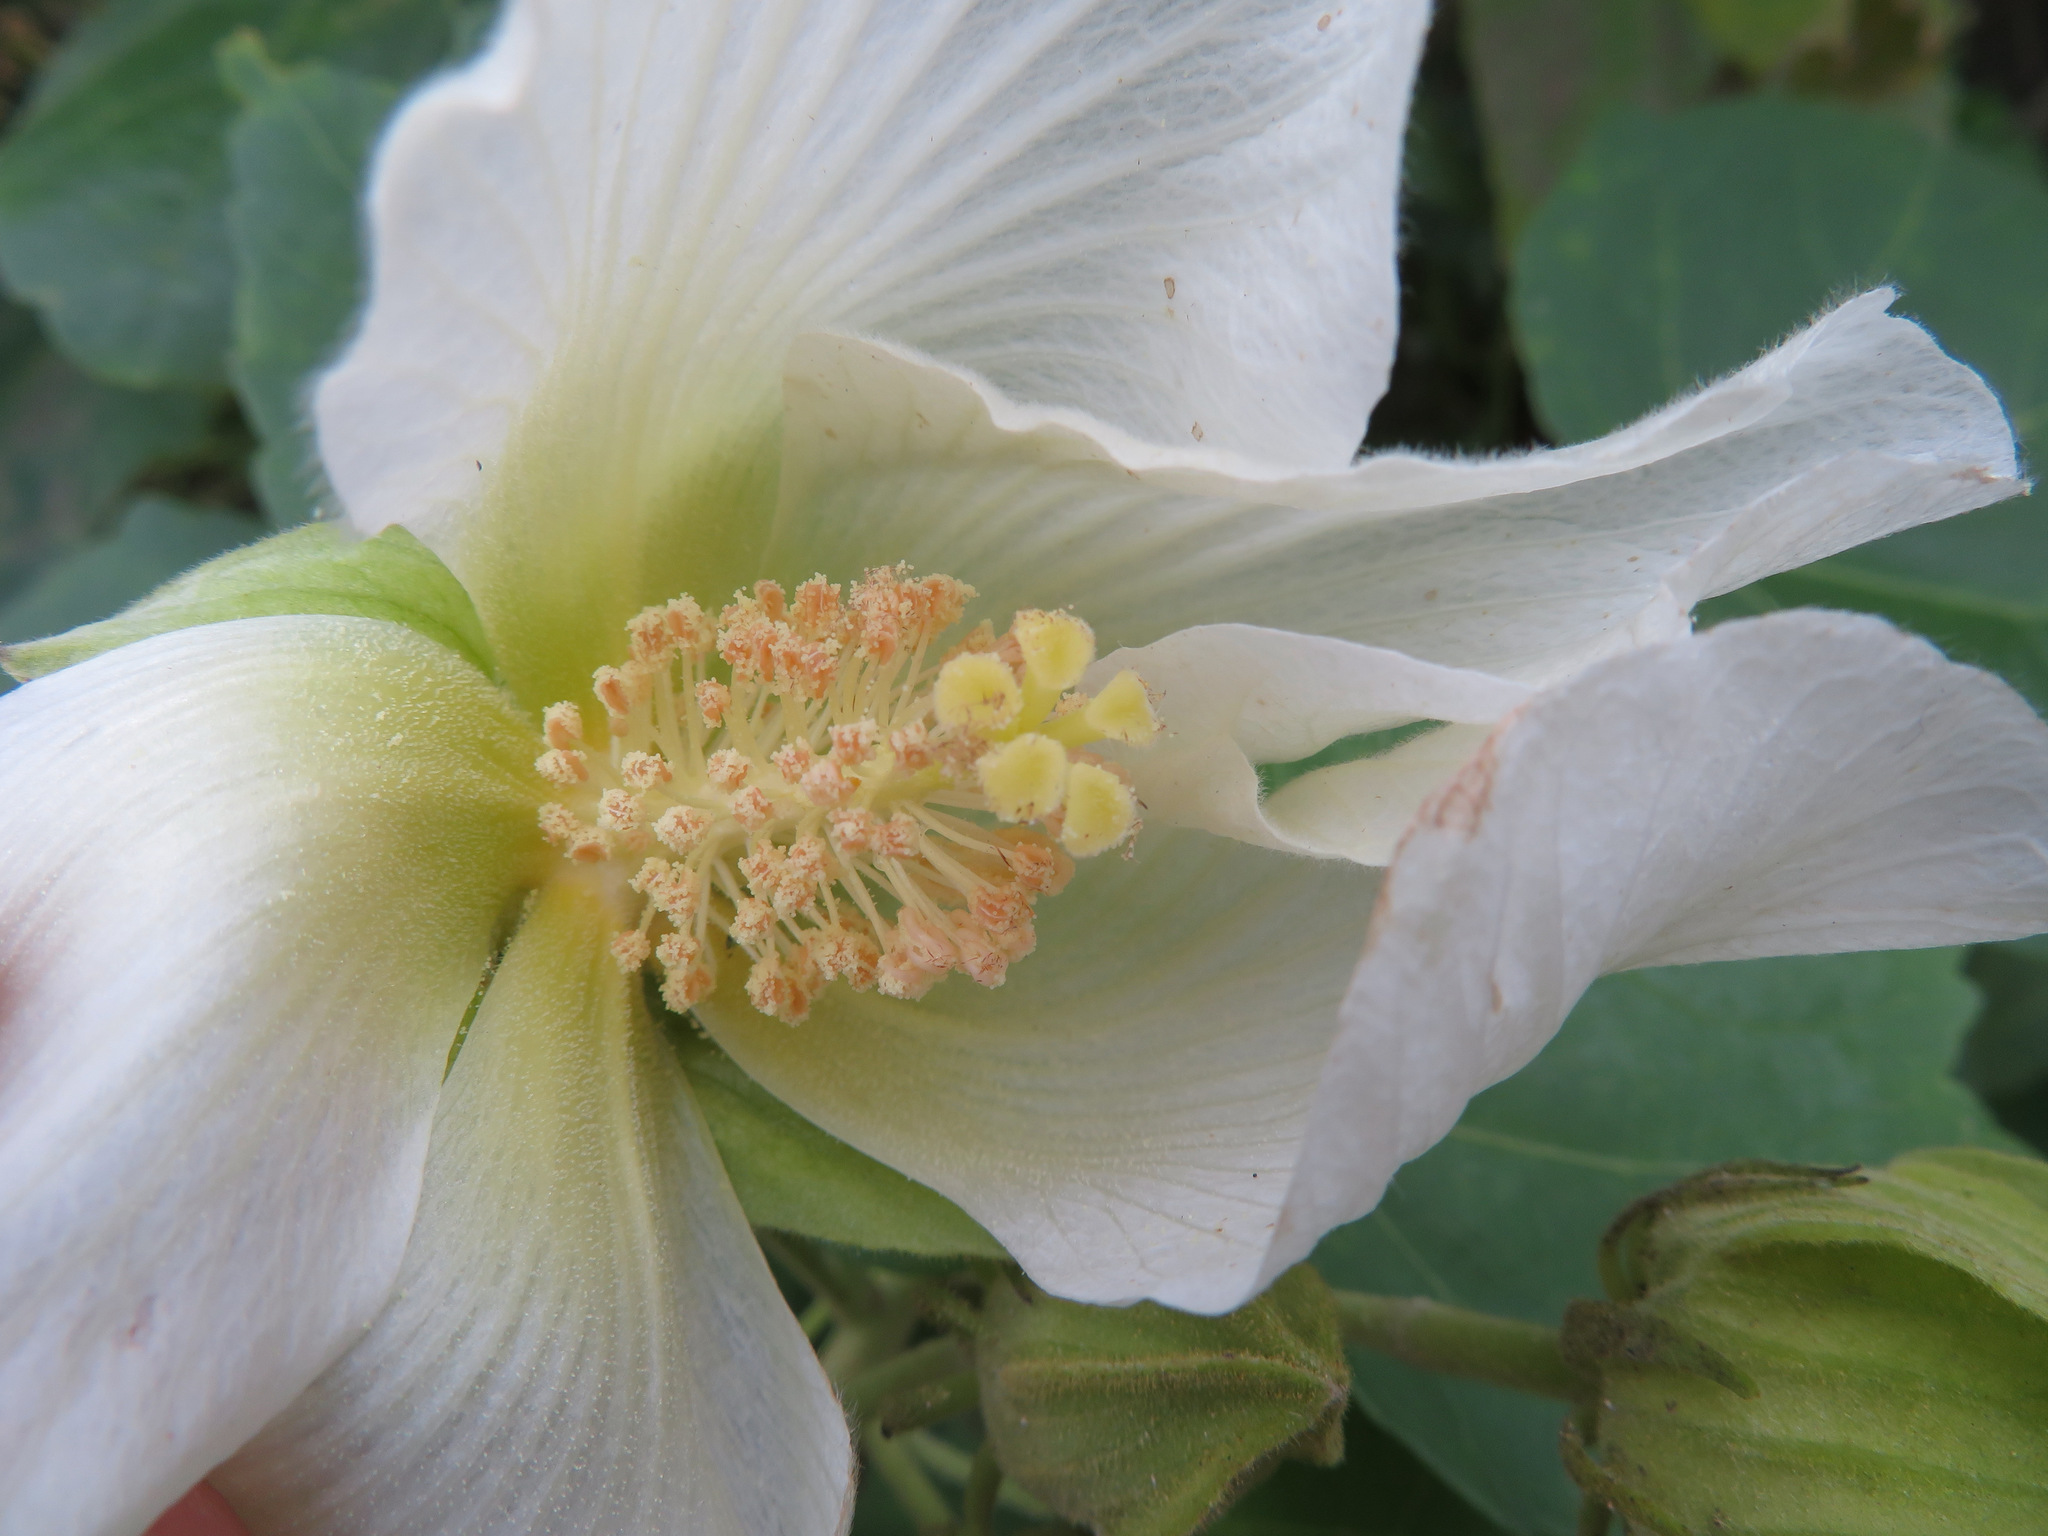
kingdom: Plantae
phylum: Tracheophyta
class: Magnoliopsida
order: Malvales
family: Malvaceae
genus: Hibiscus
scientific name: Hibiscus mutabilis
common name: Dixie rosemallow
